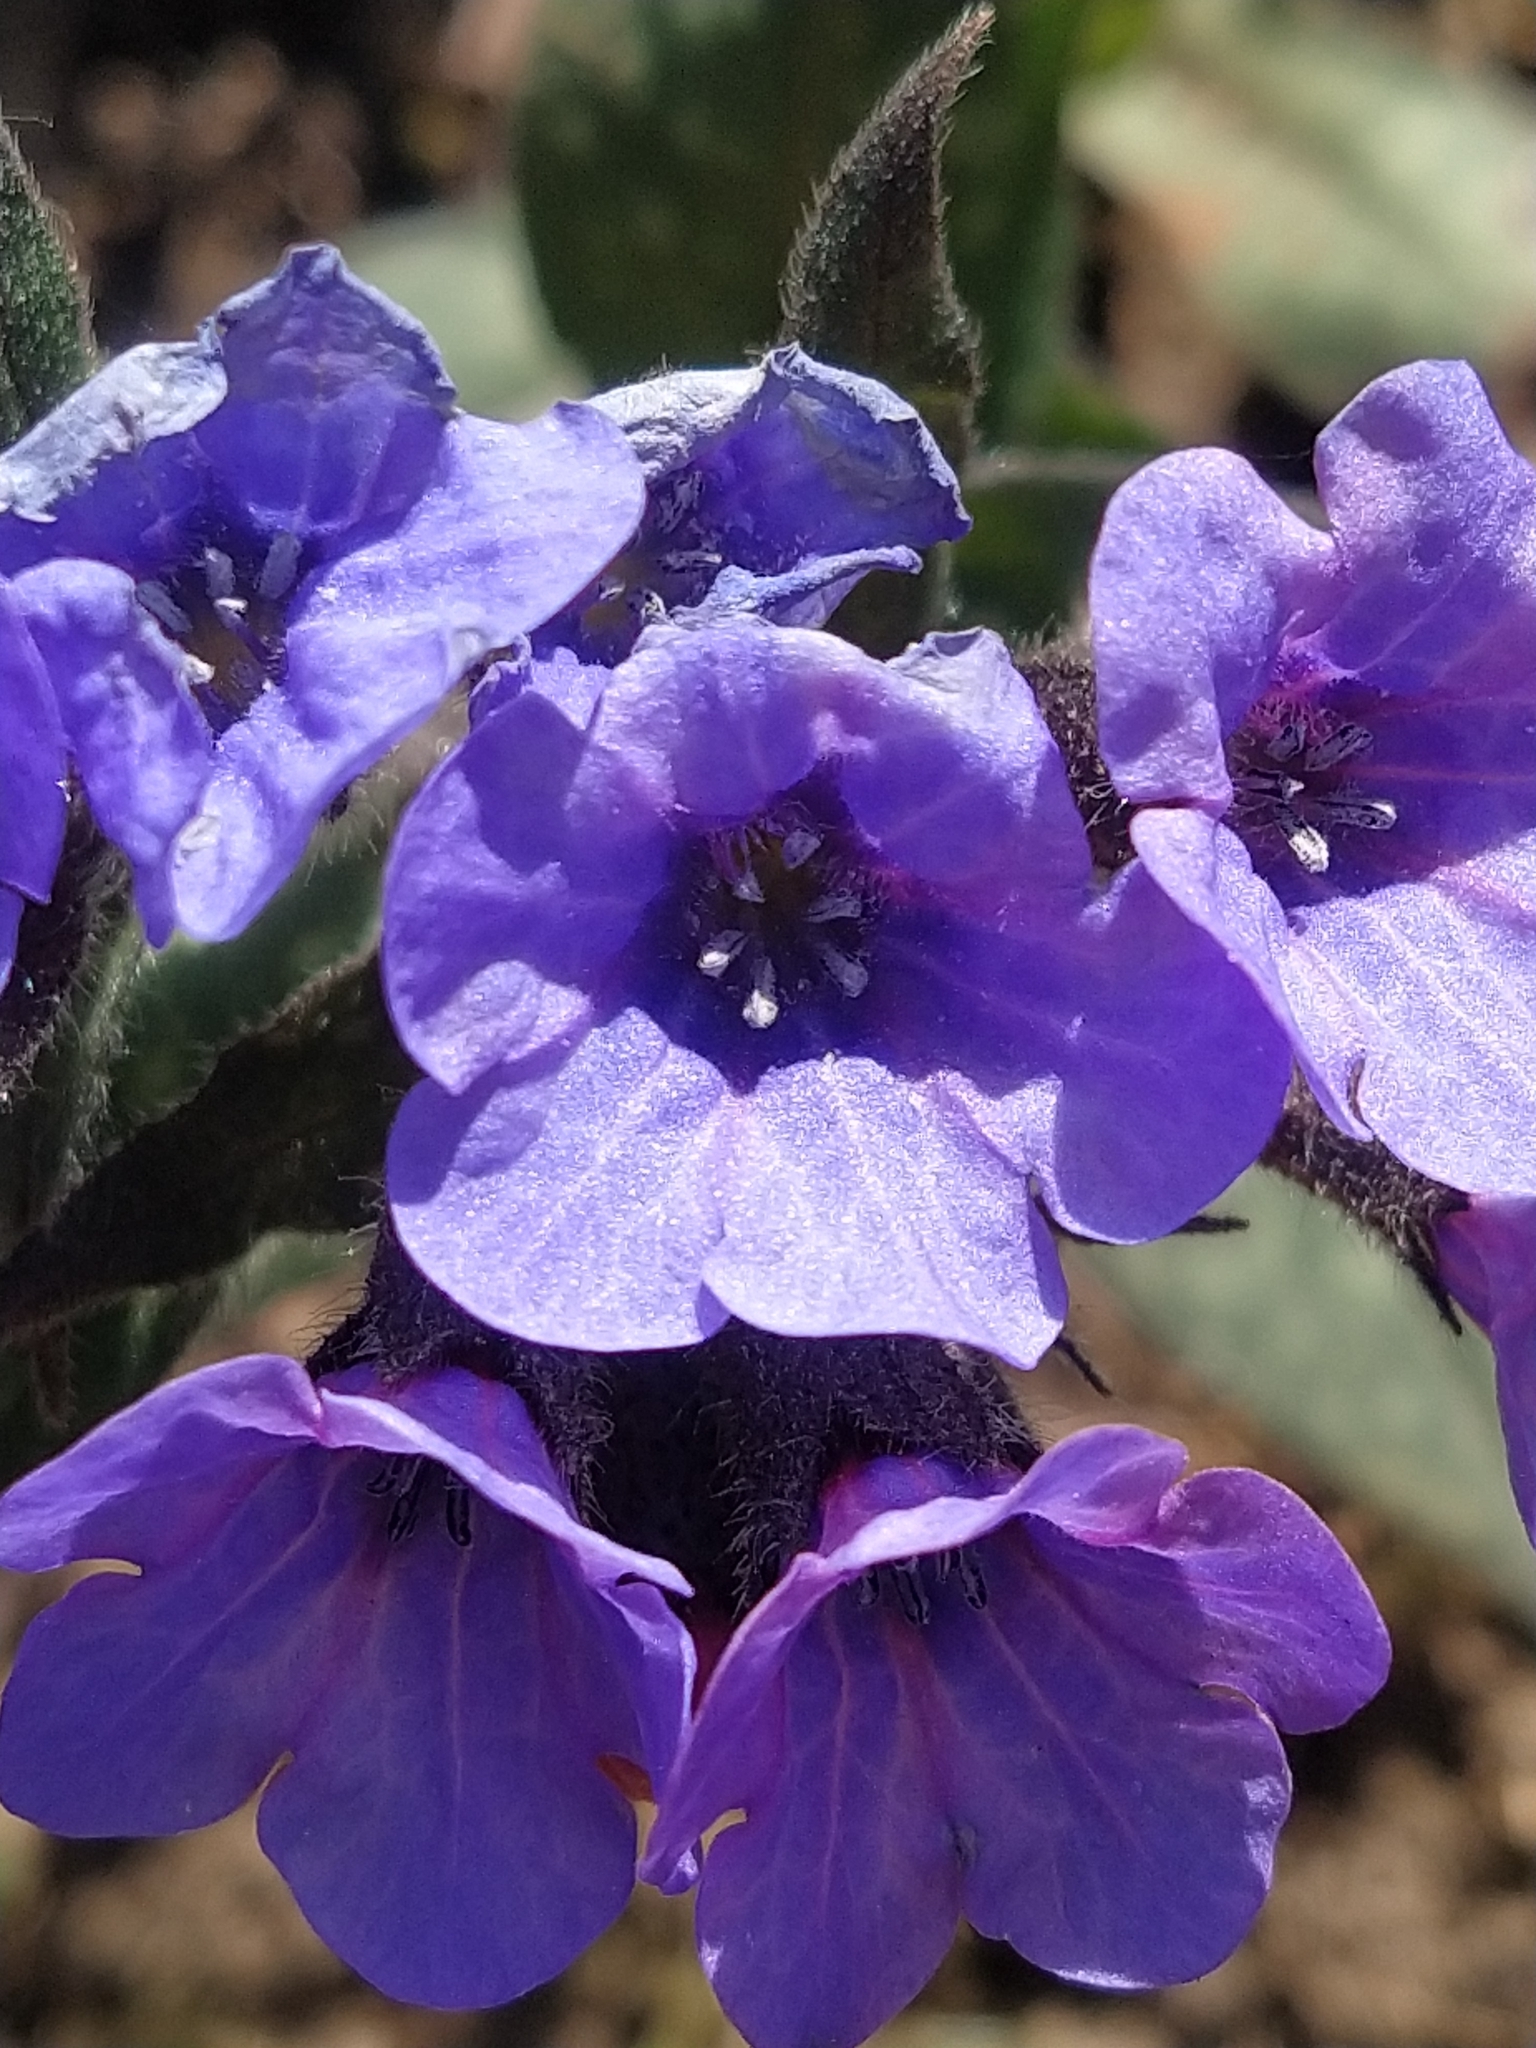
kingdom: Plantae
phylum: Tracheophyta
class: Magnoliopsida
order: Boraginales
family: Boraginaceae
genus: Pulmonaria
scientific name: Pulmonaria affinis
